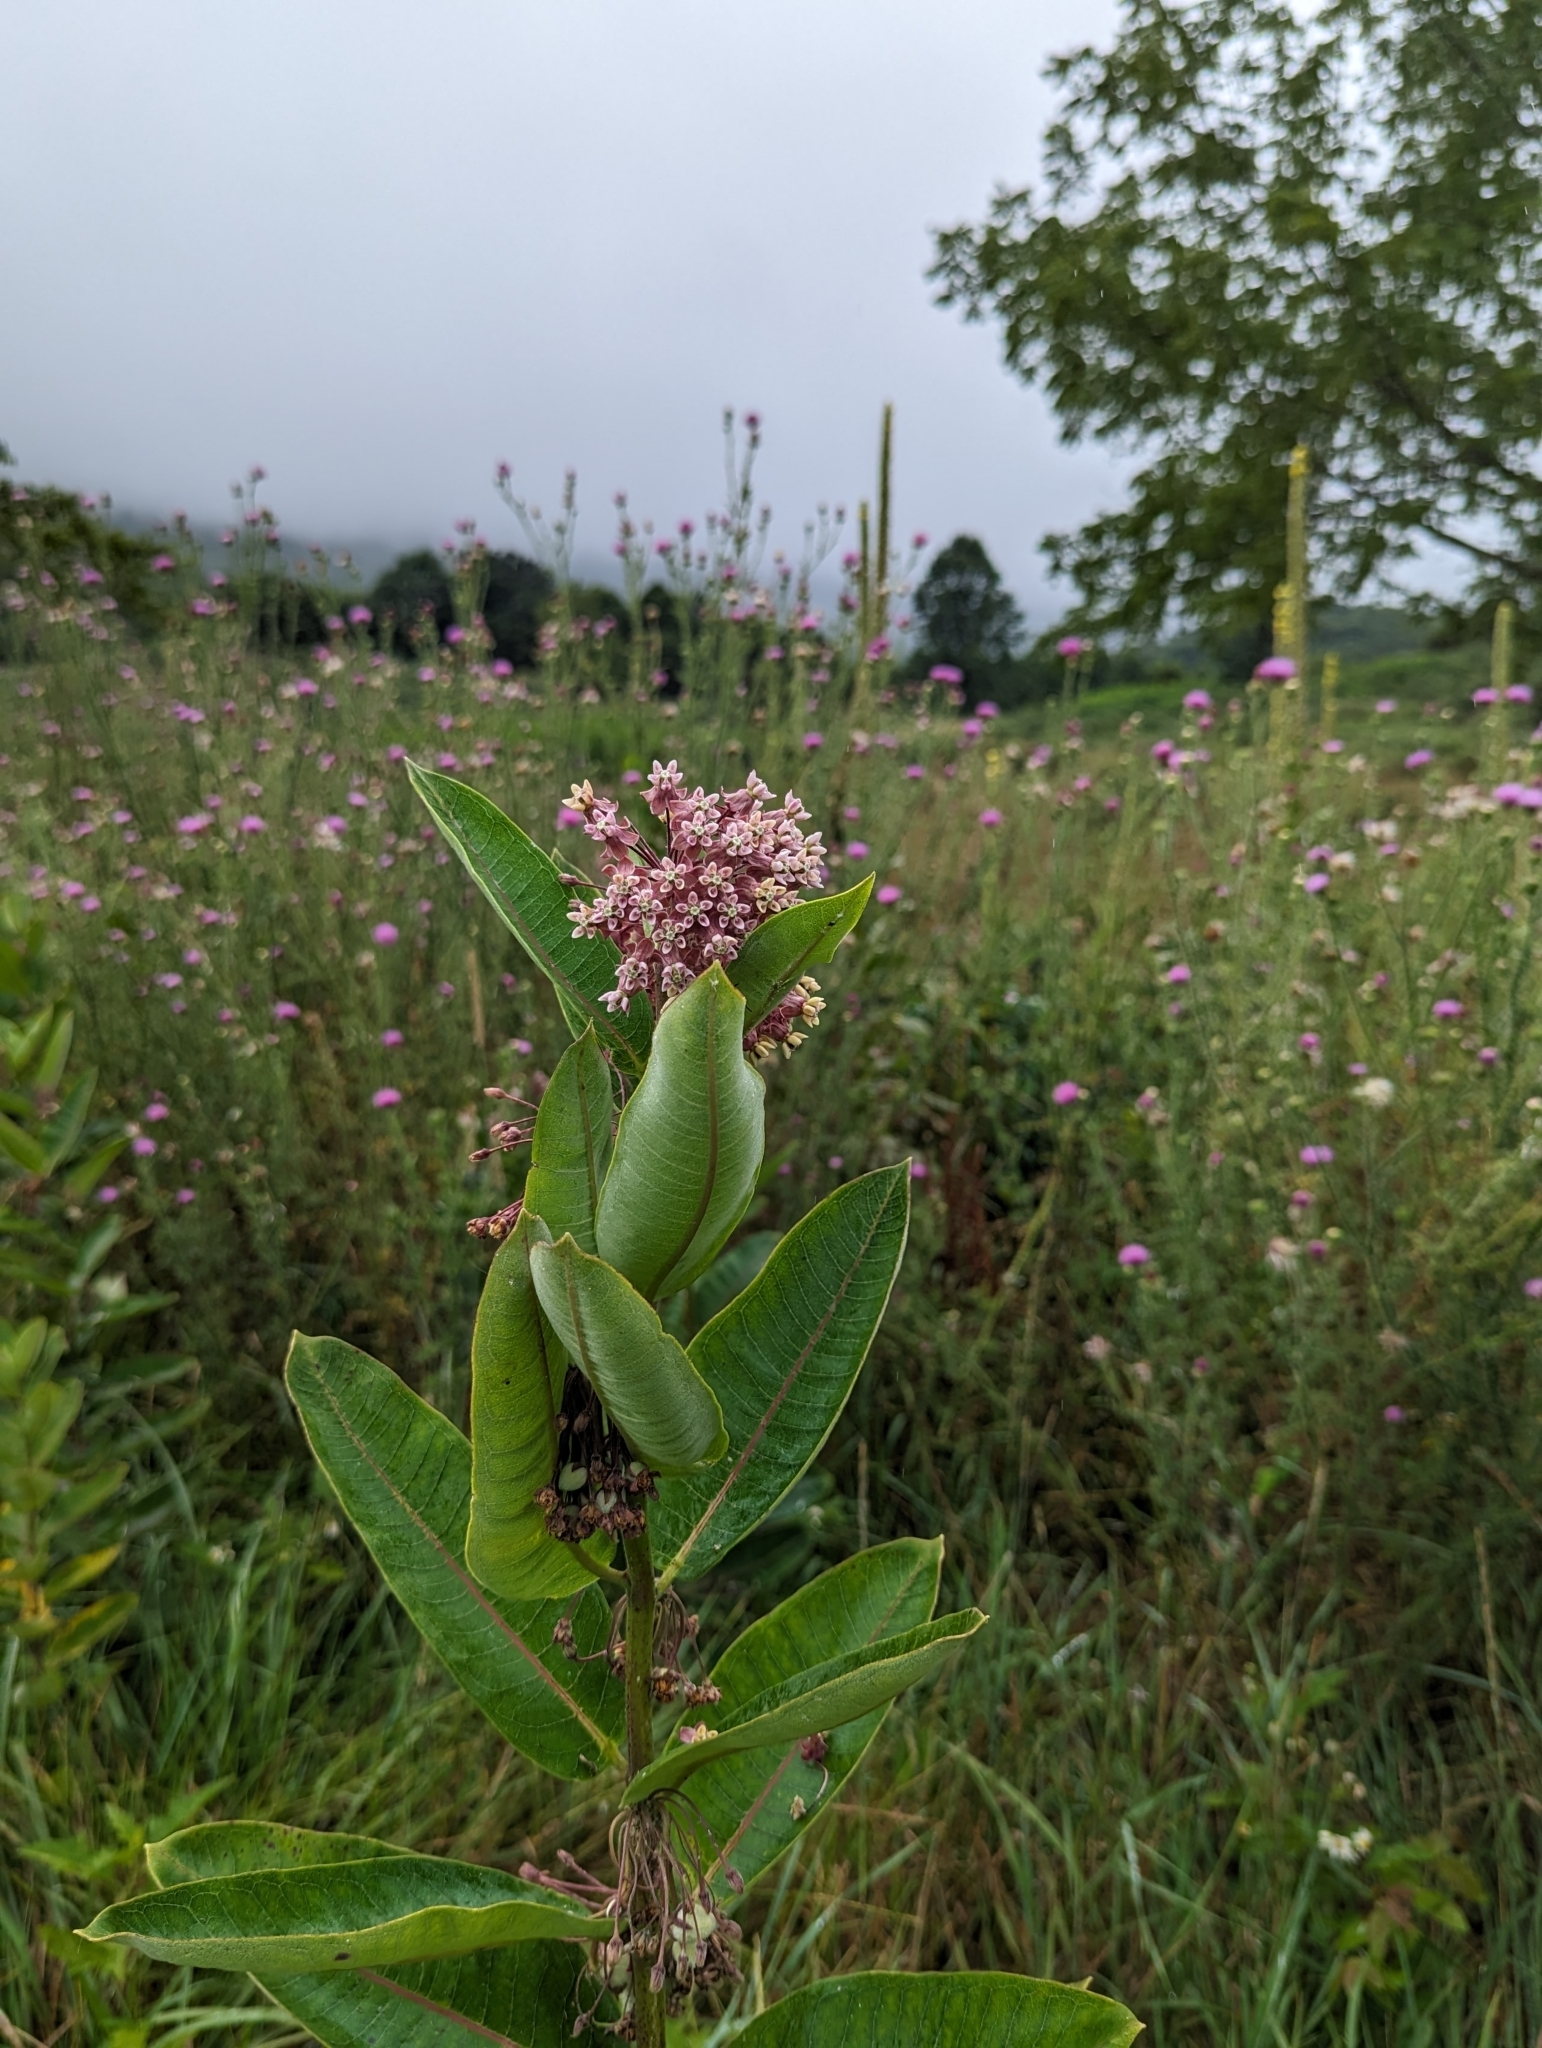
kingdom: Plantae
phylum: Tracheophyta
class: Magnoliopsida
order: Gentianales
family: Apocynaceae
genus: Asclepias
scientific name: Asclepias syriaca
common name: Common milkweed
